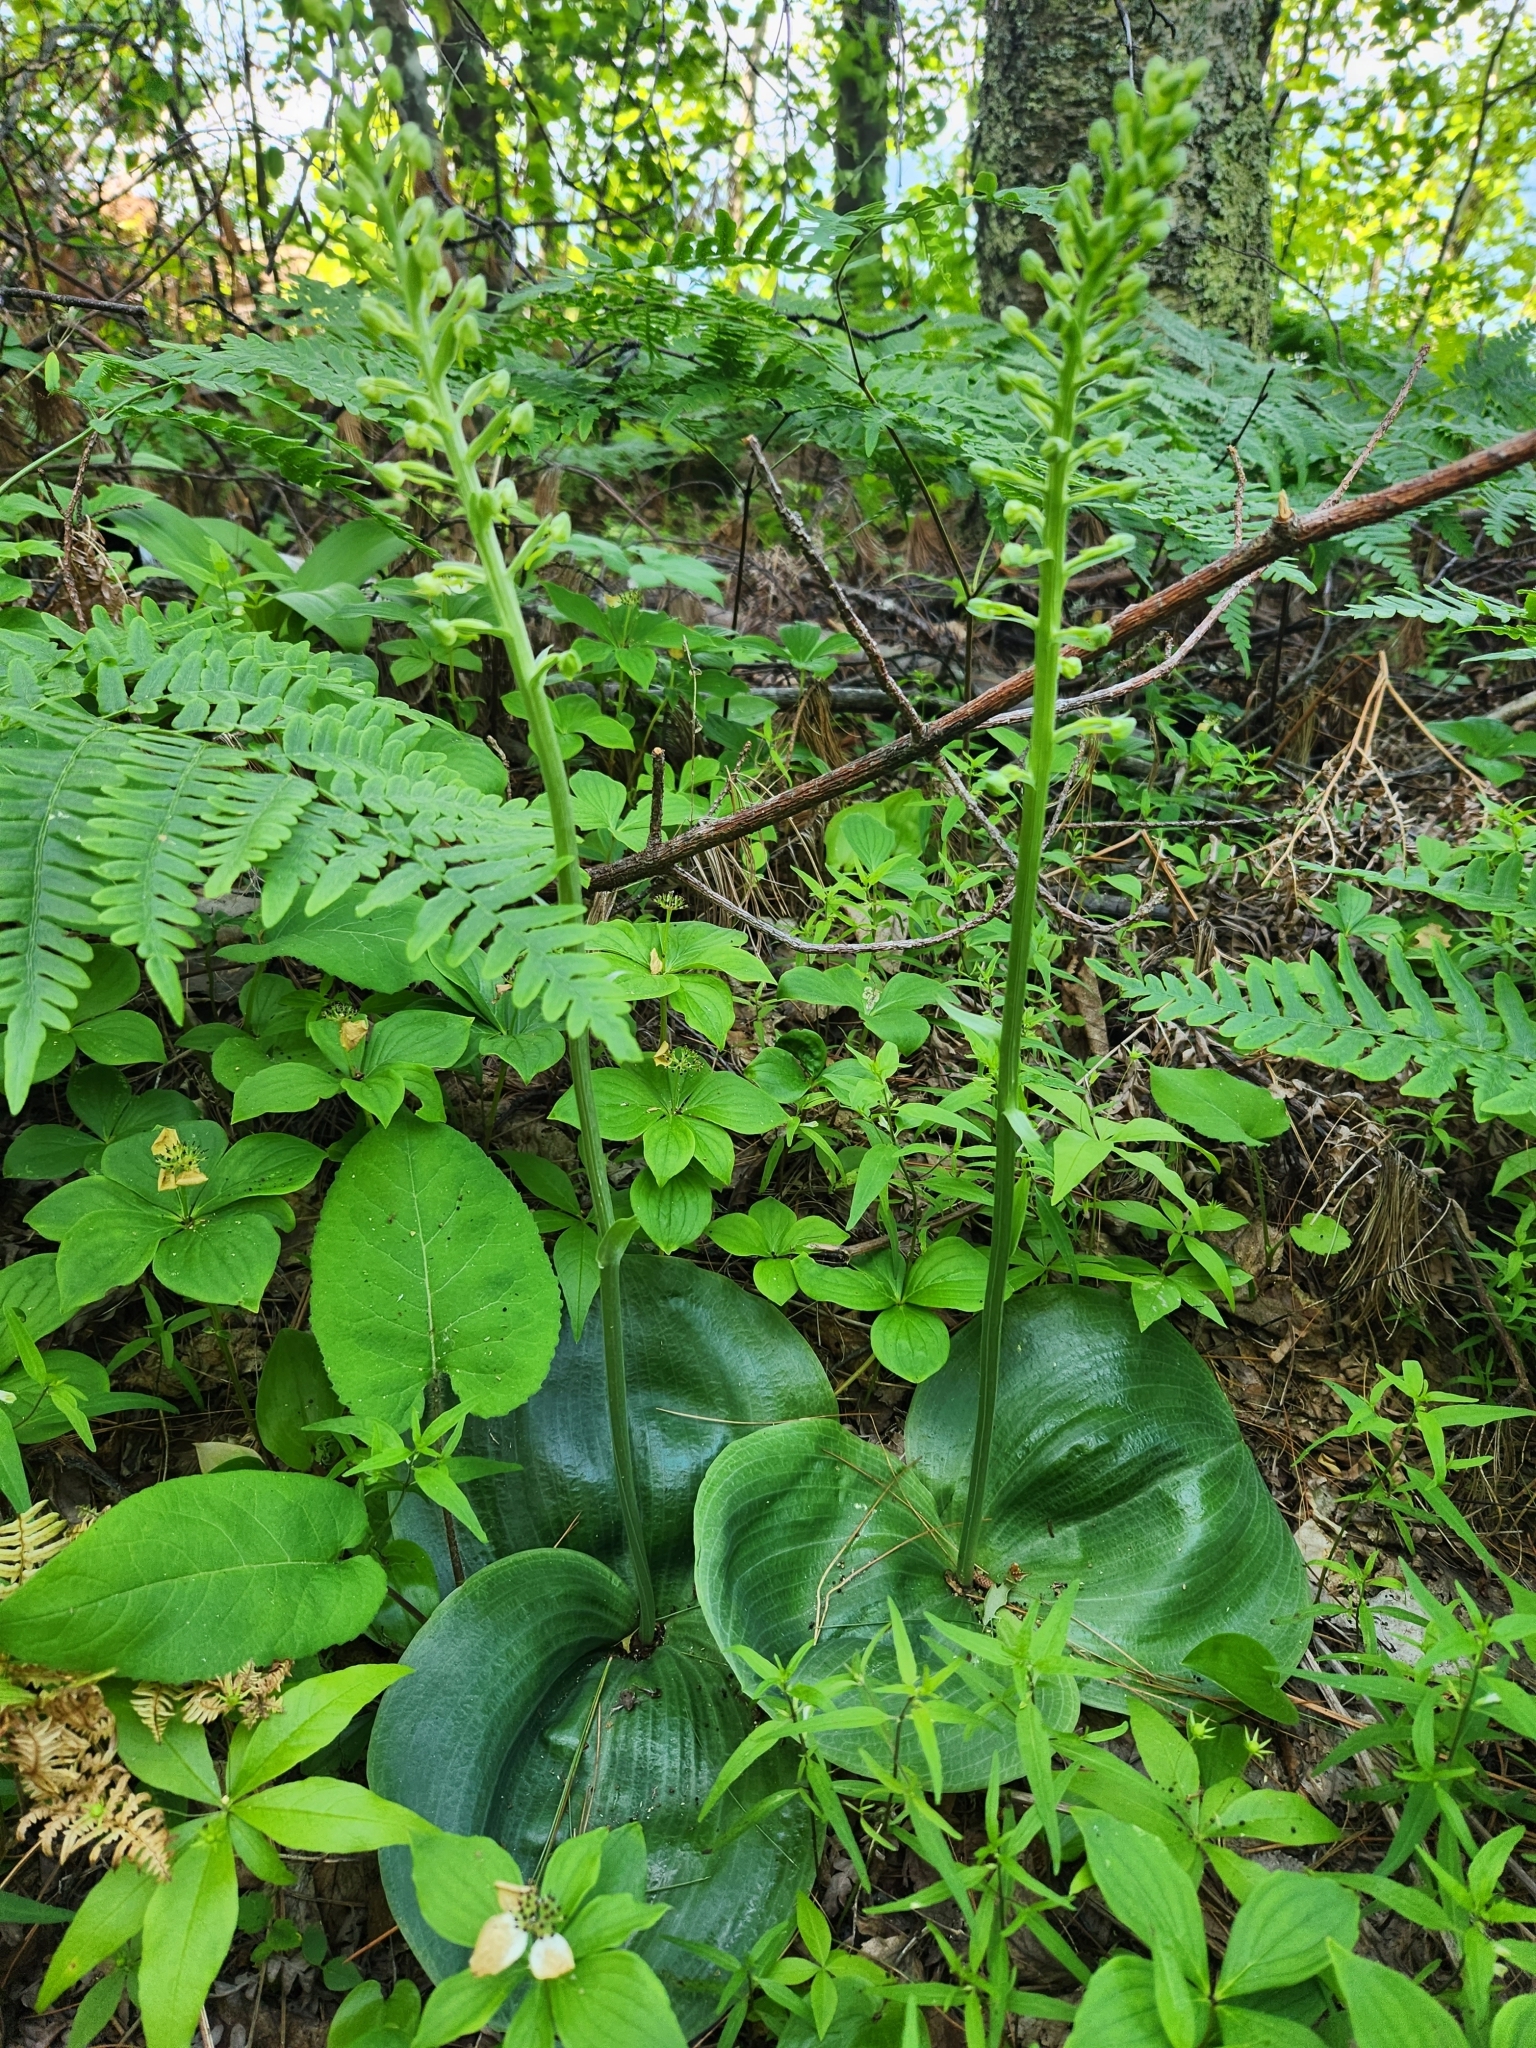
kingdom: Plantae
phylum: Tracheophyta
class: Liliopsida
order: Asparagales
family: Orchidaceae
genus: Platanthera
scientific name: Platanthera orbiculata
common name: Large round-leaved orchid
